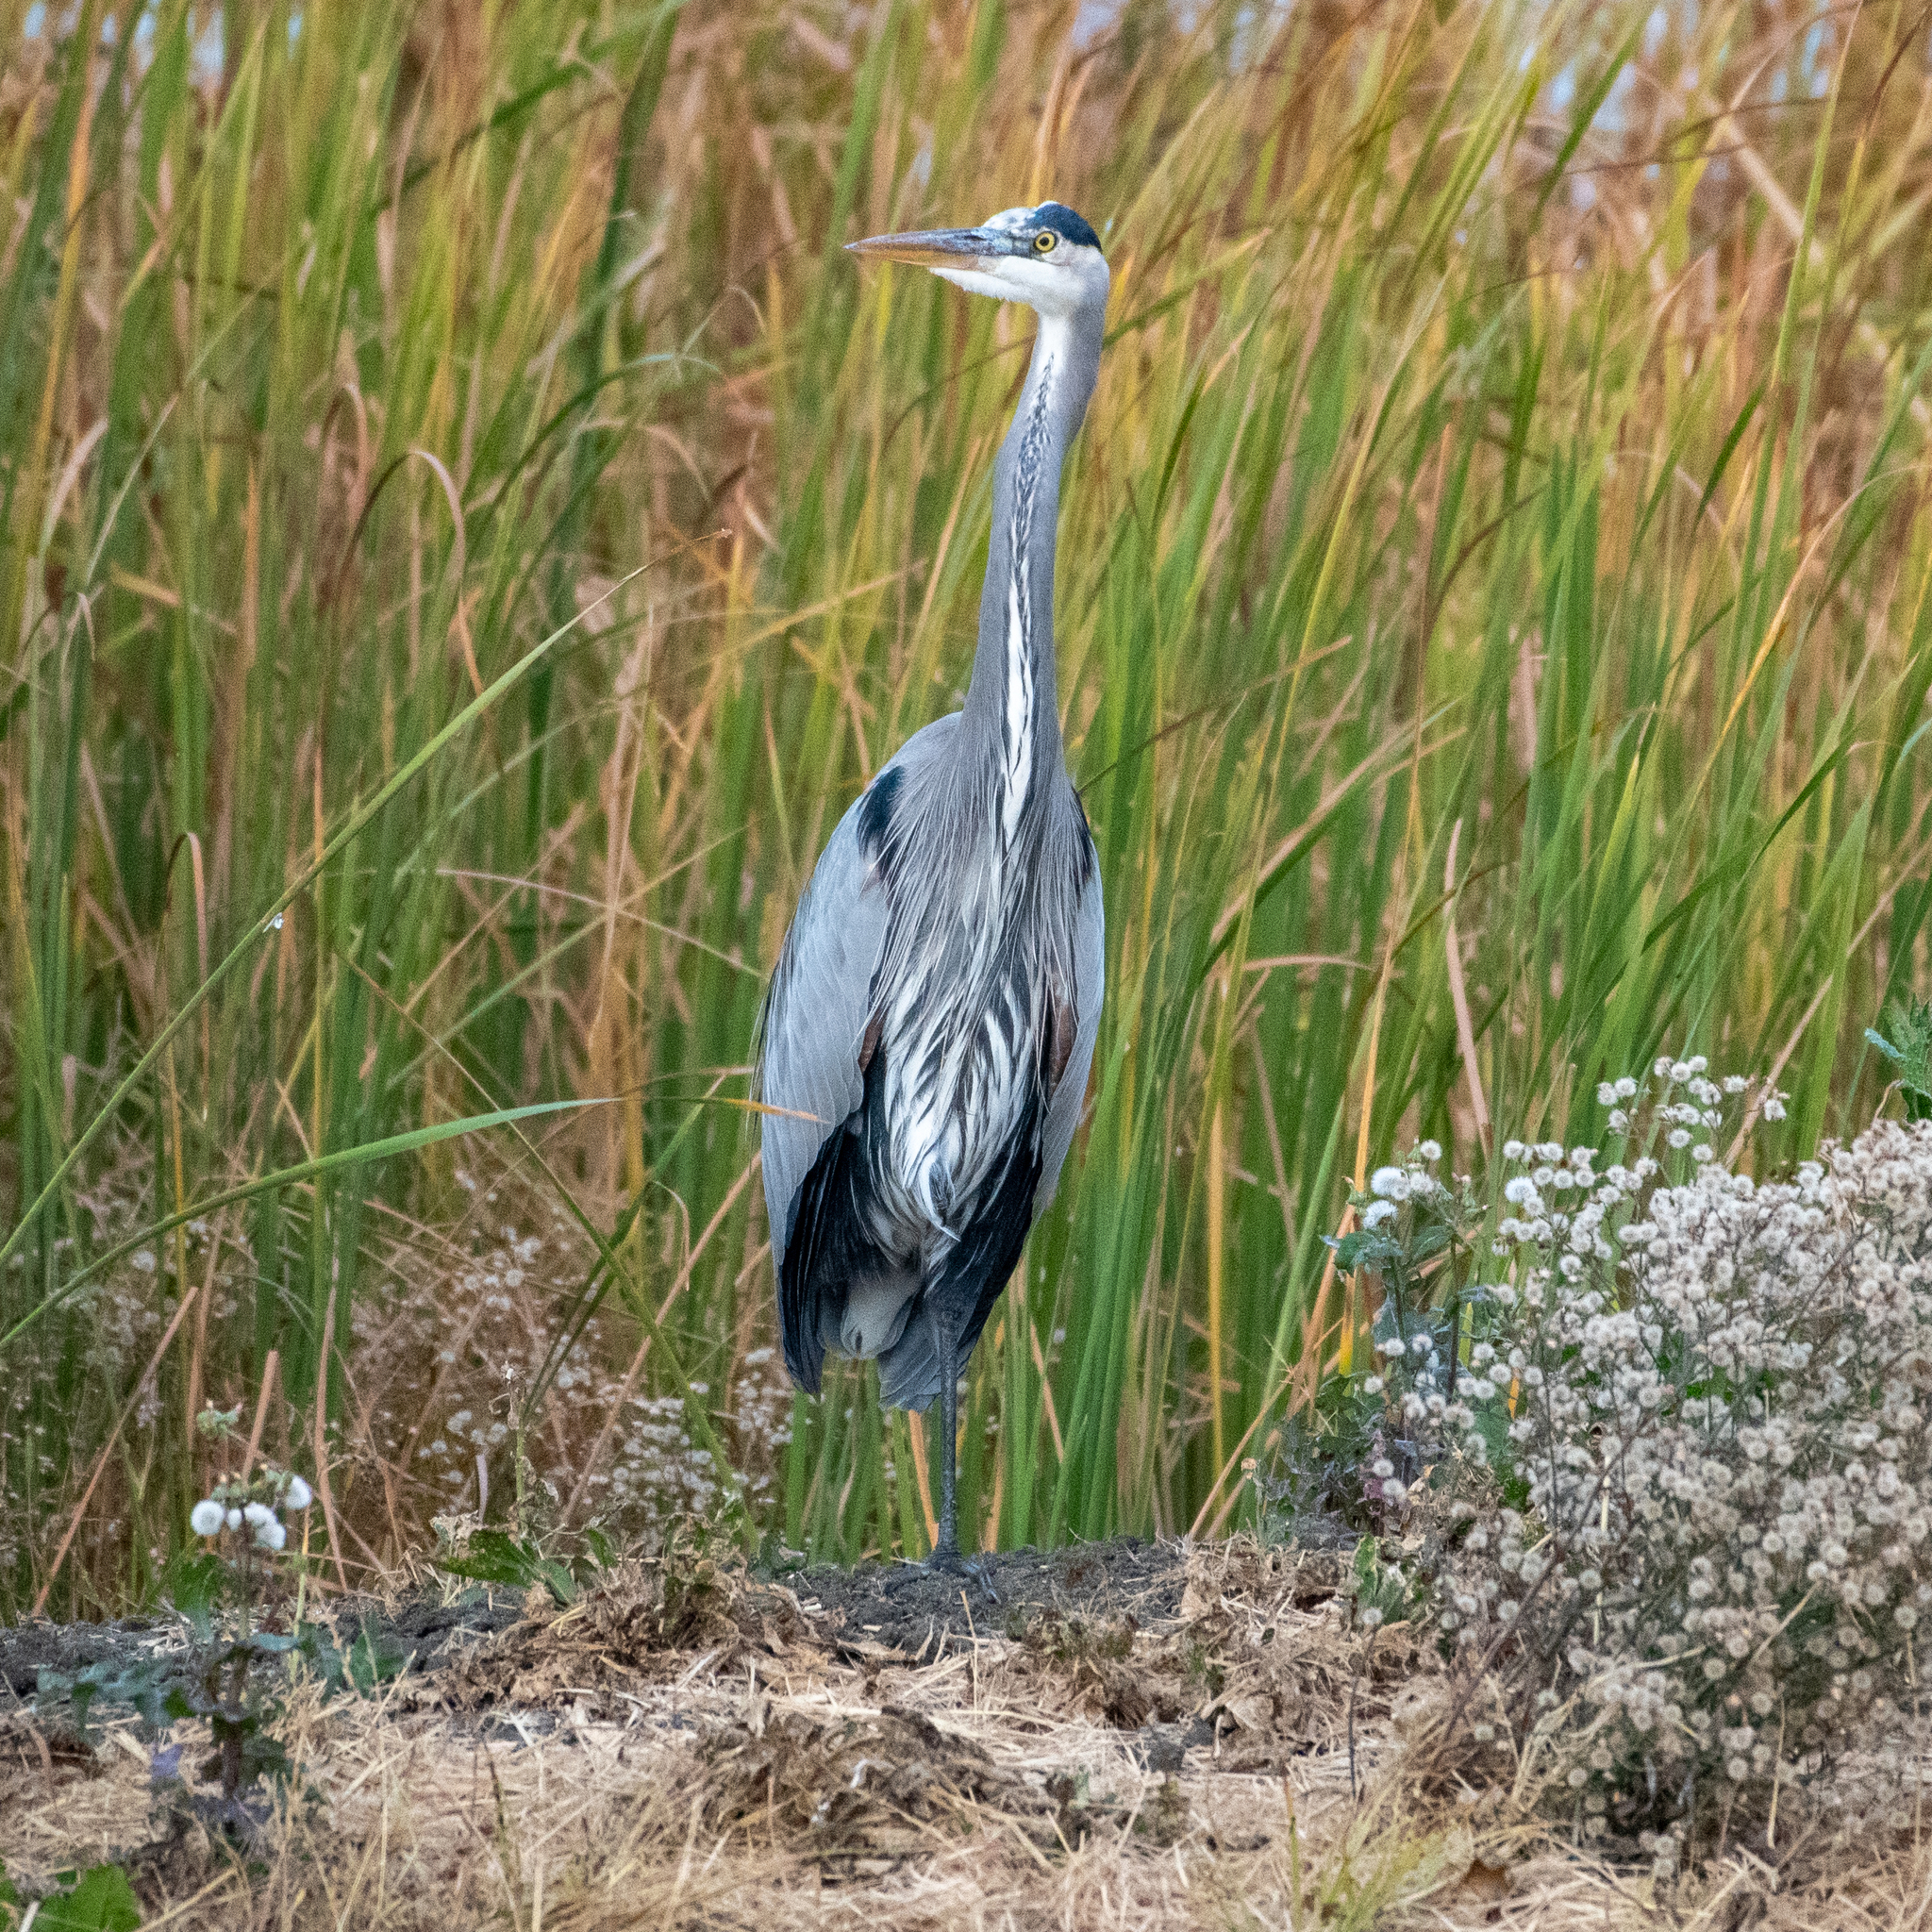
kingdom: Animalia
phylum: Chordata
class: Aves
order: Pelecaniformes
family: Ardeidae
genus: Ardea
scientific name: Ardea herodias
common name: Great blue heron
